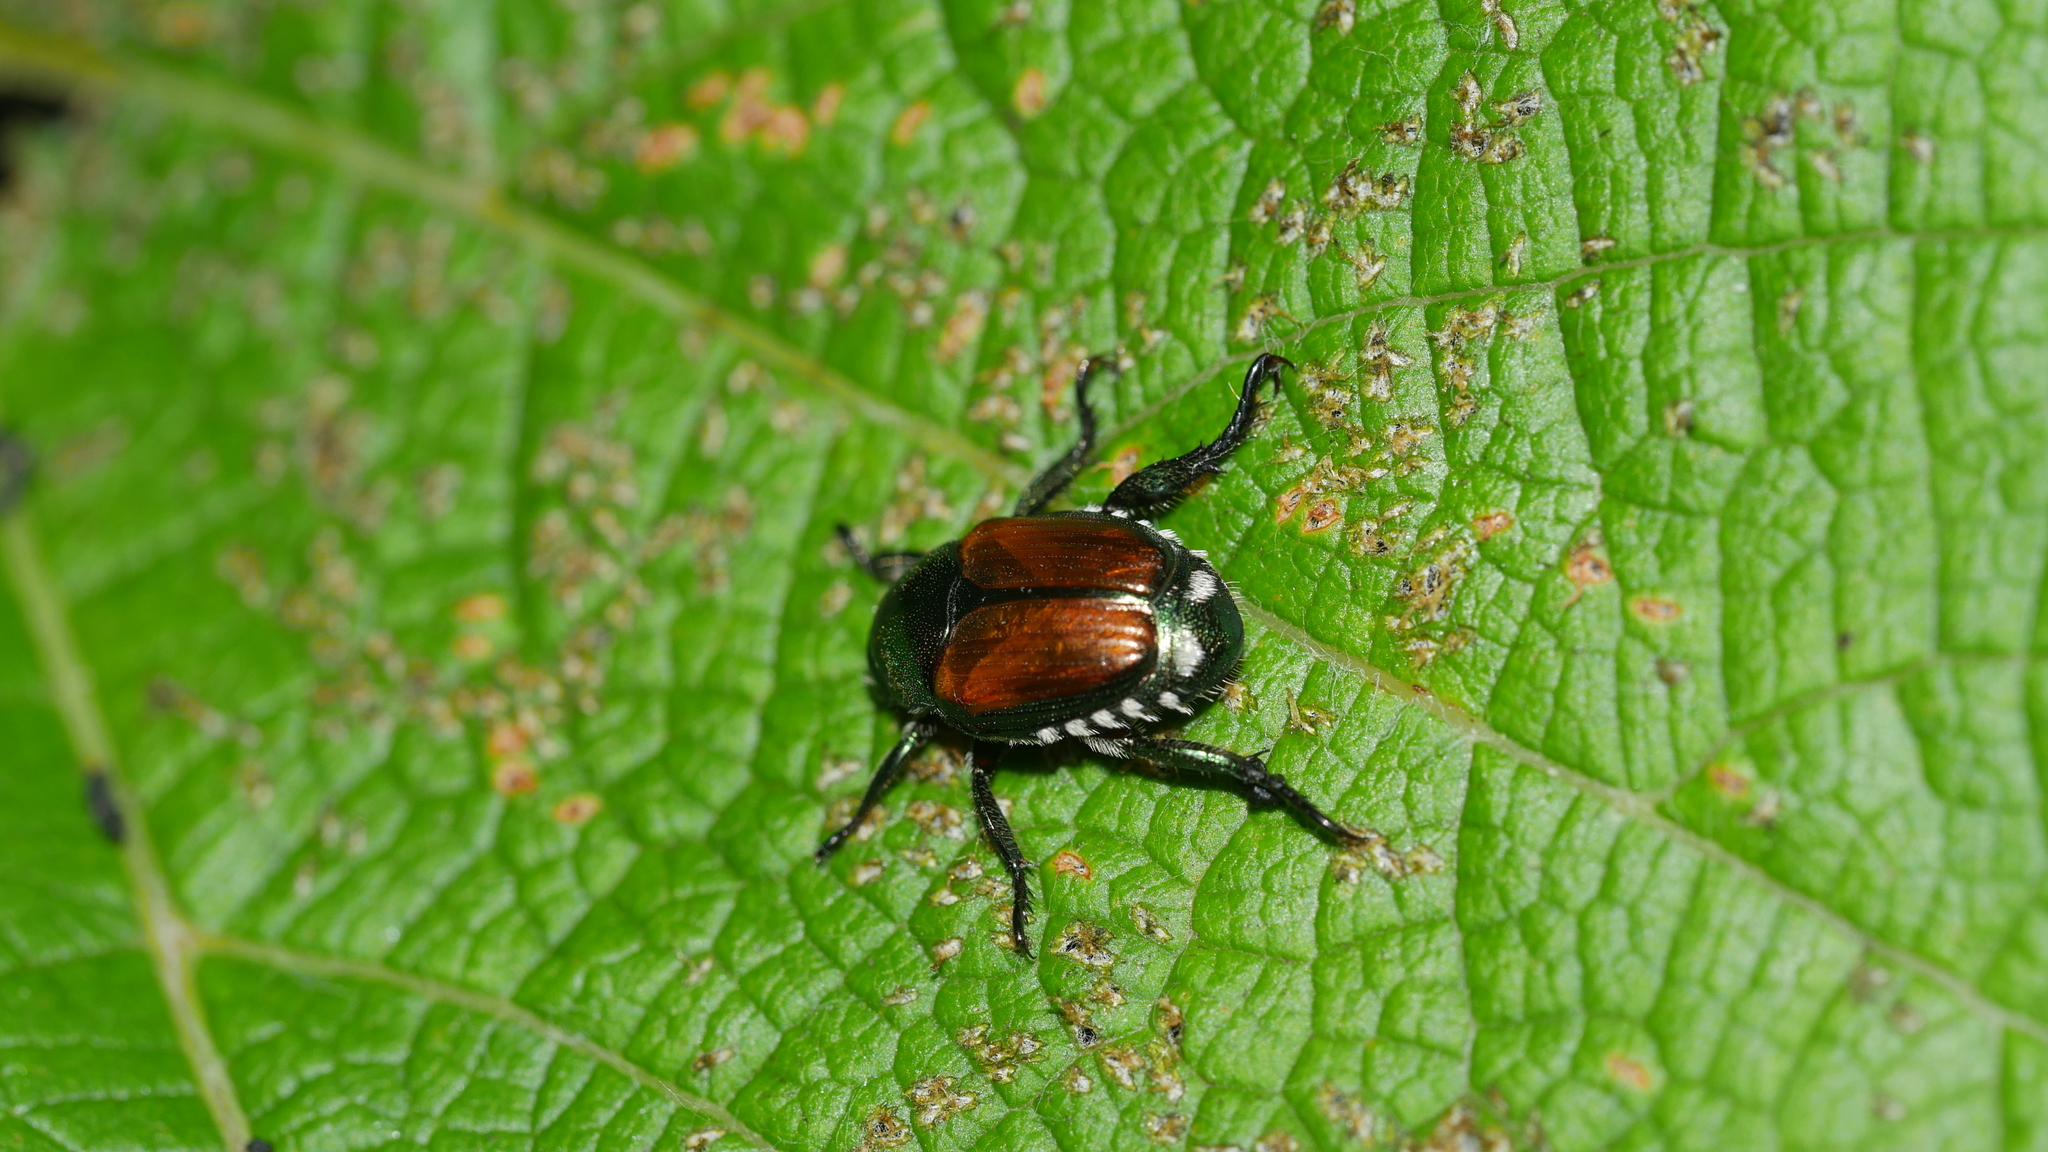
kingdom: Animalia
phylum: Arthropoda
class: Insecta
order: Coleoptera
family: Scarabaeidae
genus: Popillia
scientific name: Popillia japonica
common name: Japanese beetle
